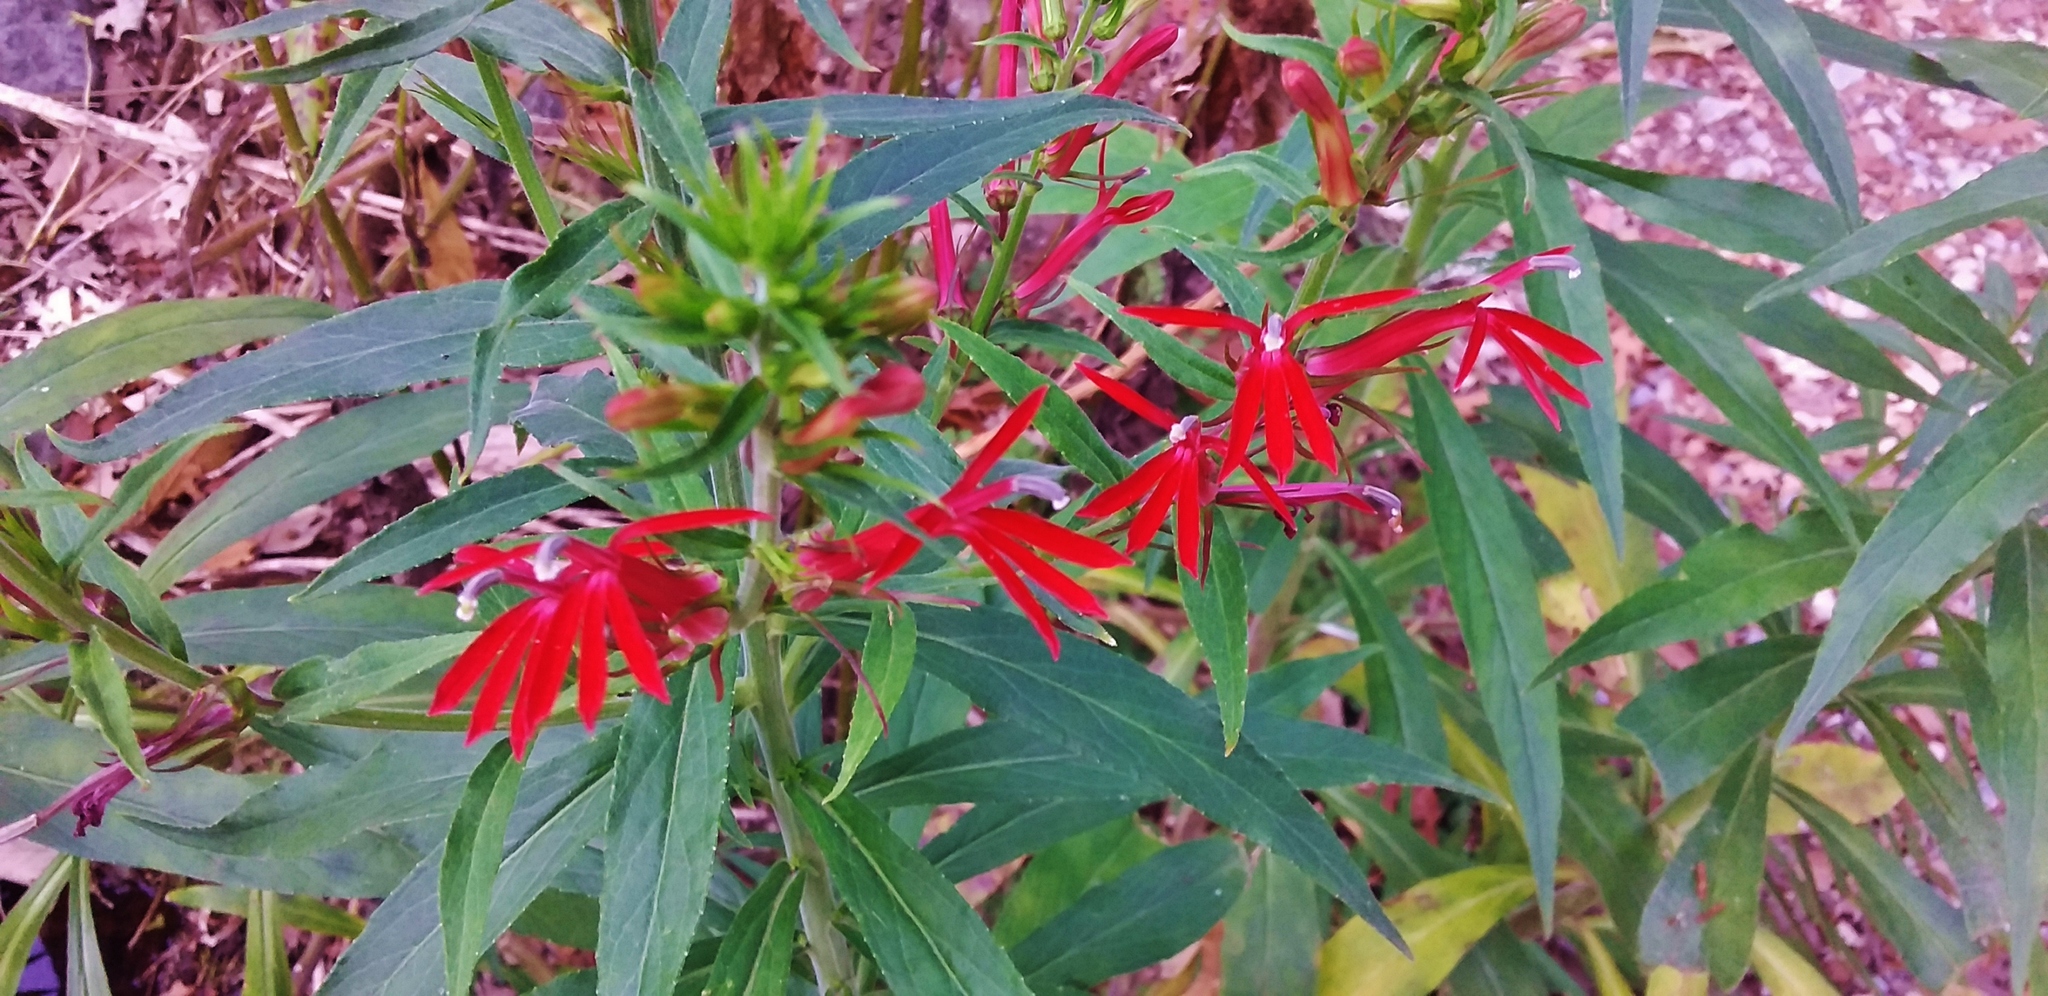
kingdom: Plantae
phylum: Tracheophyta
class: Magnoliopsida
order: Asterales
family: Campanulaceae
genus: Lobelia
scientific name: Lobelia cardinalis
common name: Cardinal flower
